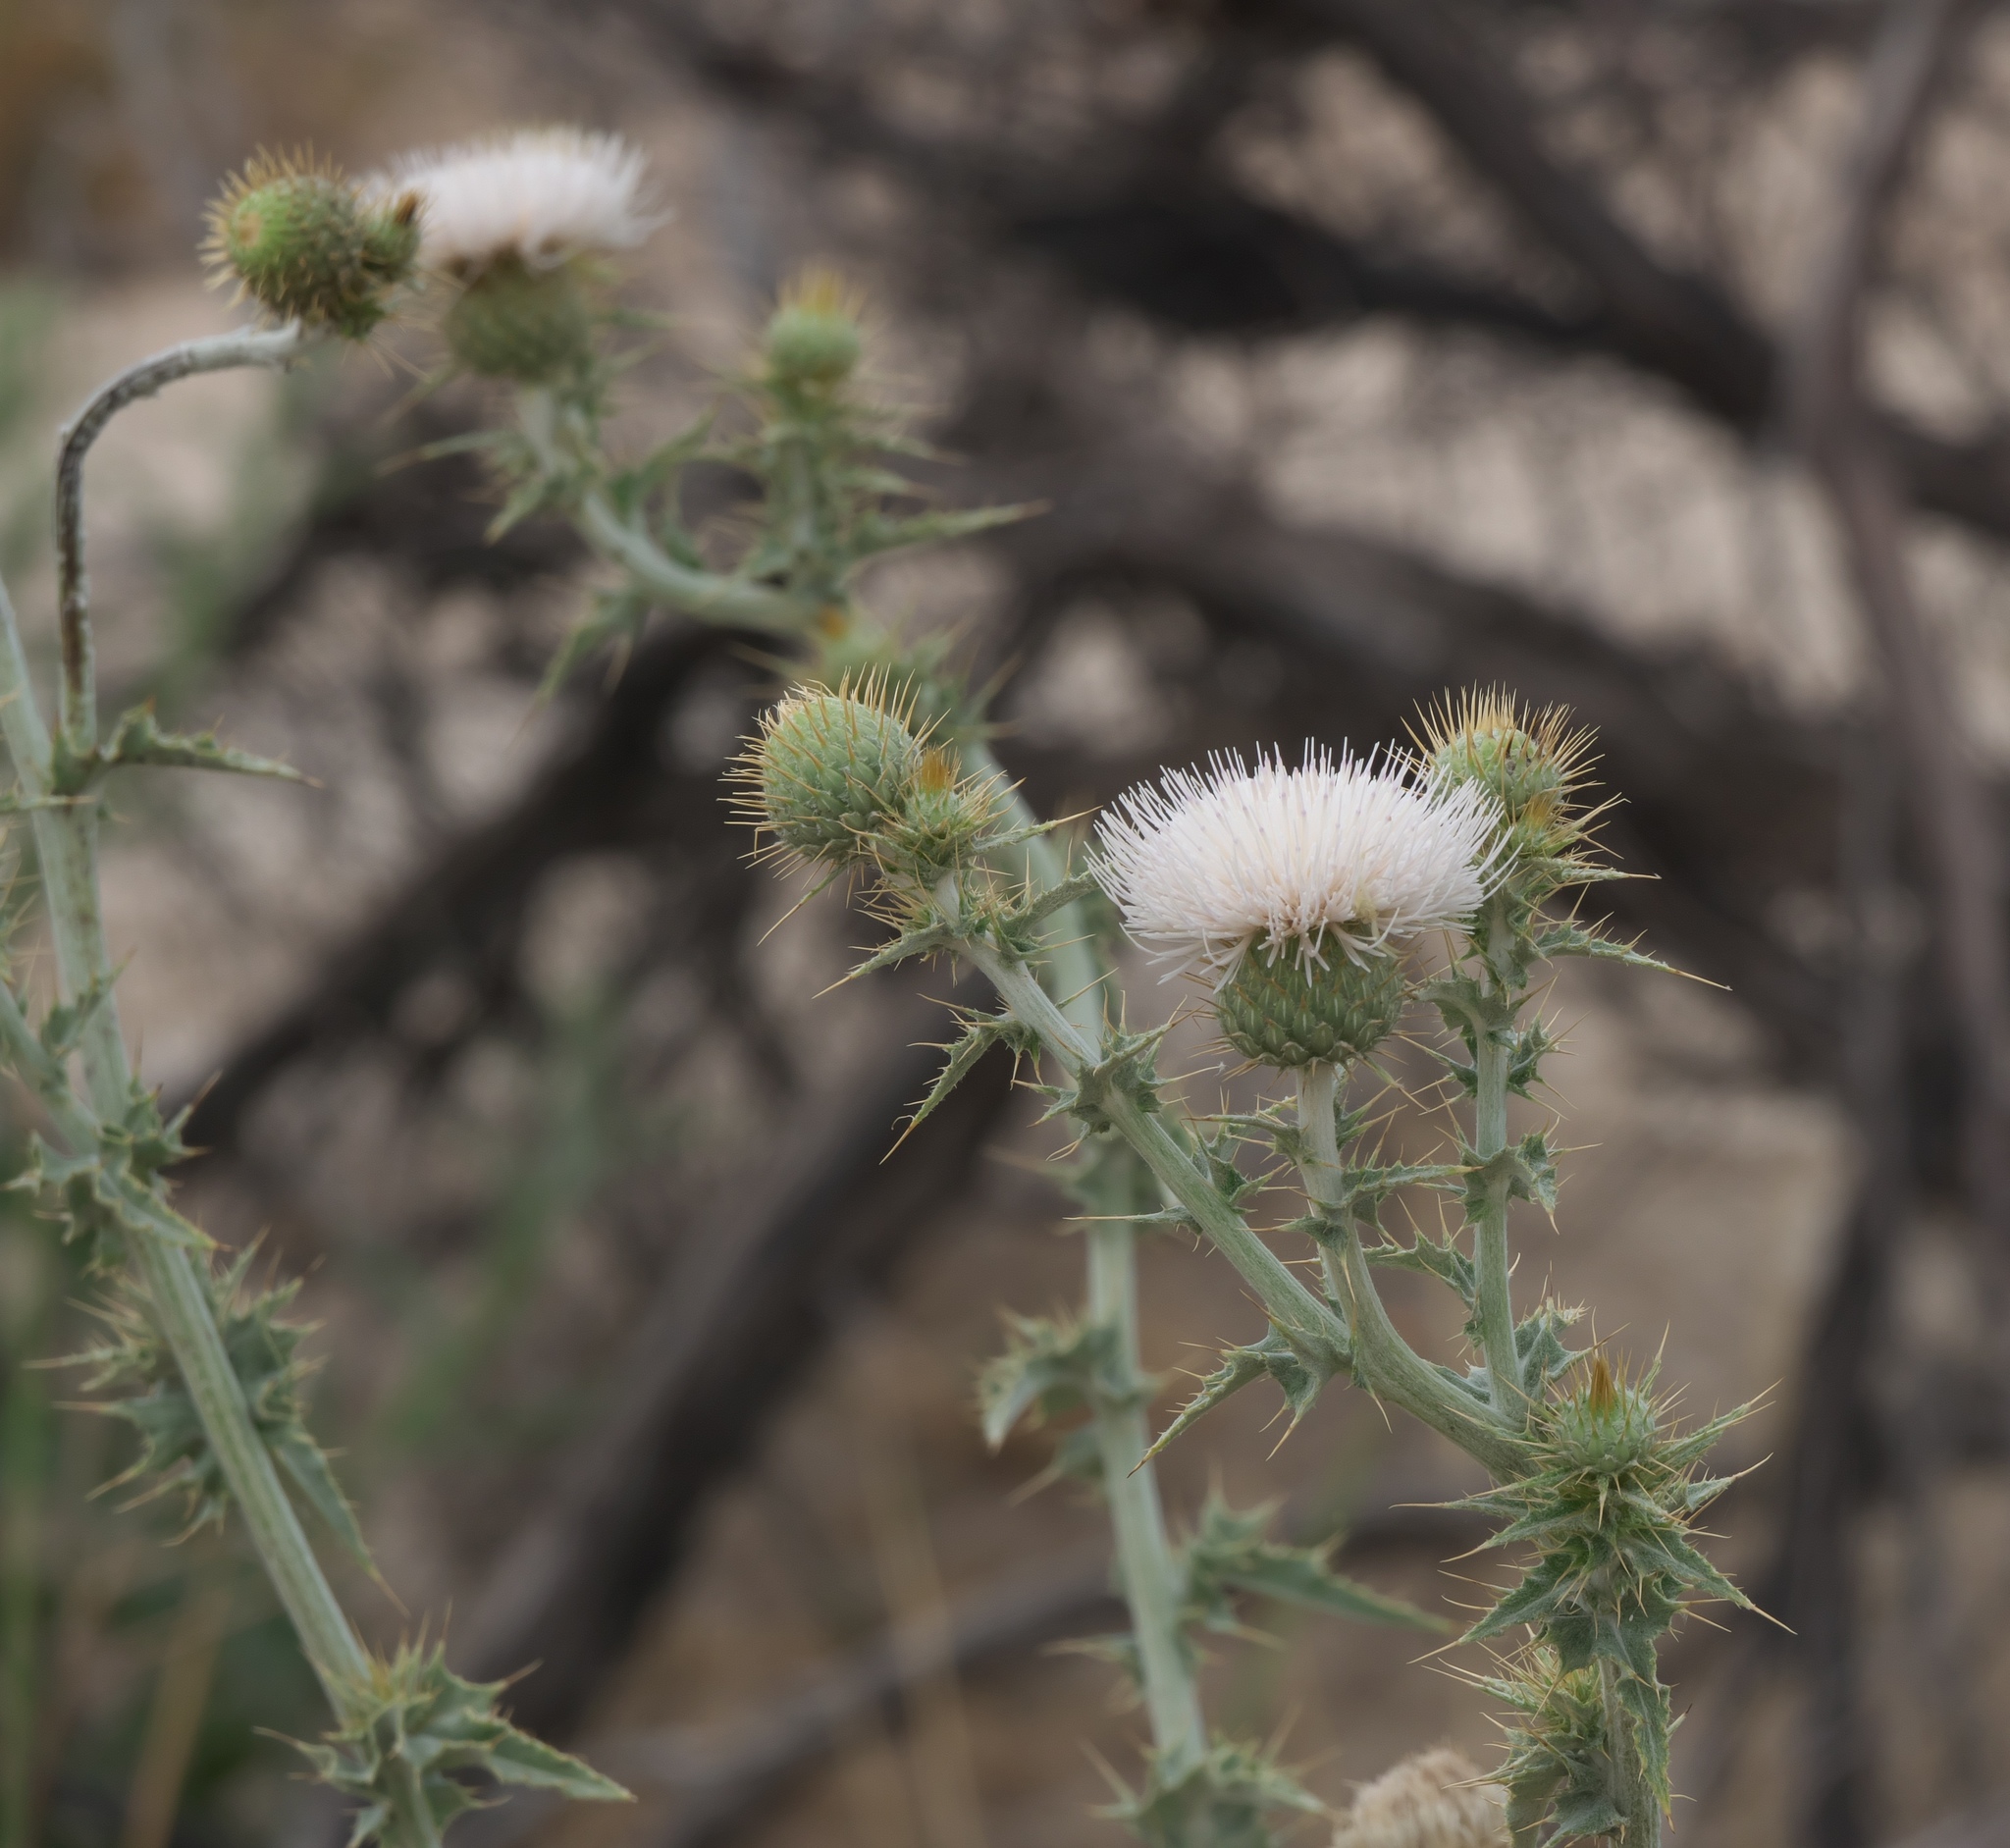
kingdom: Plantae
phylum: Tracheophyta
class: Magnoliopsida
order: Asterales
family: Asteraceae
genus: Cirsium
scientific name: Cirsium mohavense
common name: Mojave thistle
